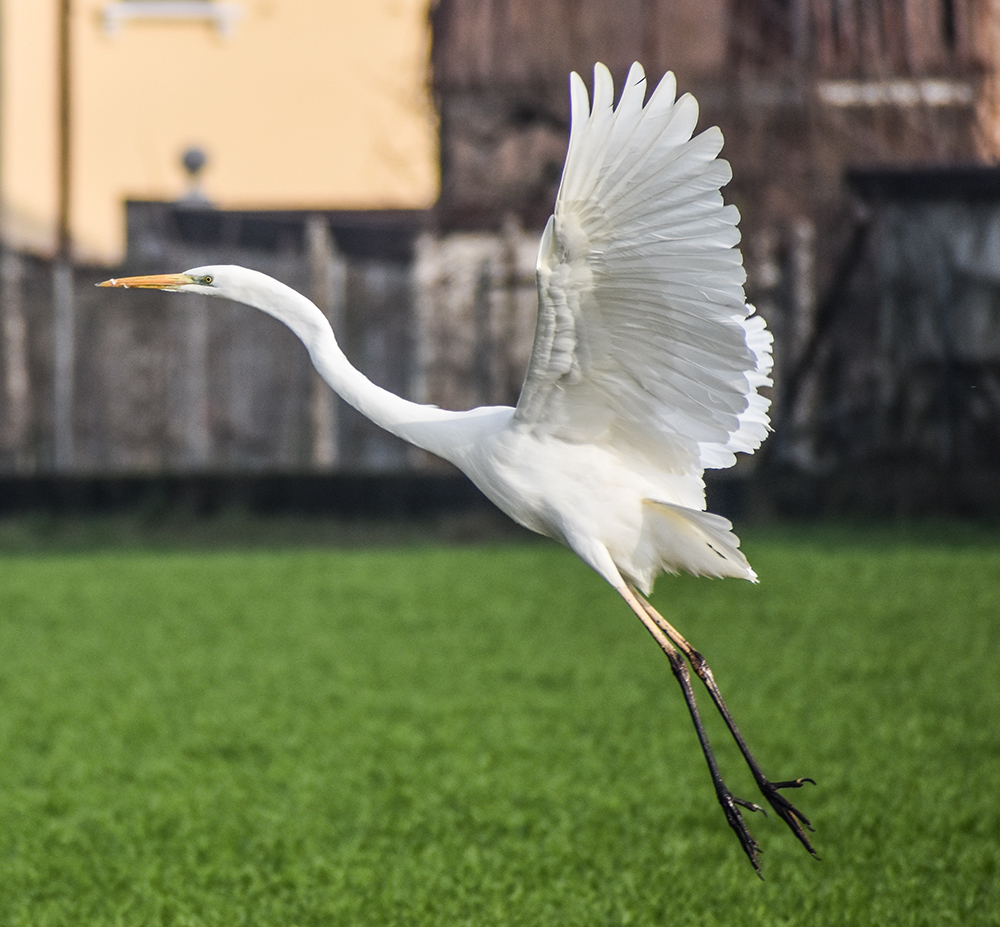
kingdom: Animalia
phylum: Chordata
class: Aves
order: Pelecaniformes
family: Ardeidae
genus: Ardea
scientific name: Ardea alba
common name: Great egret
